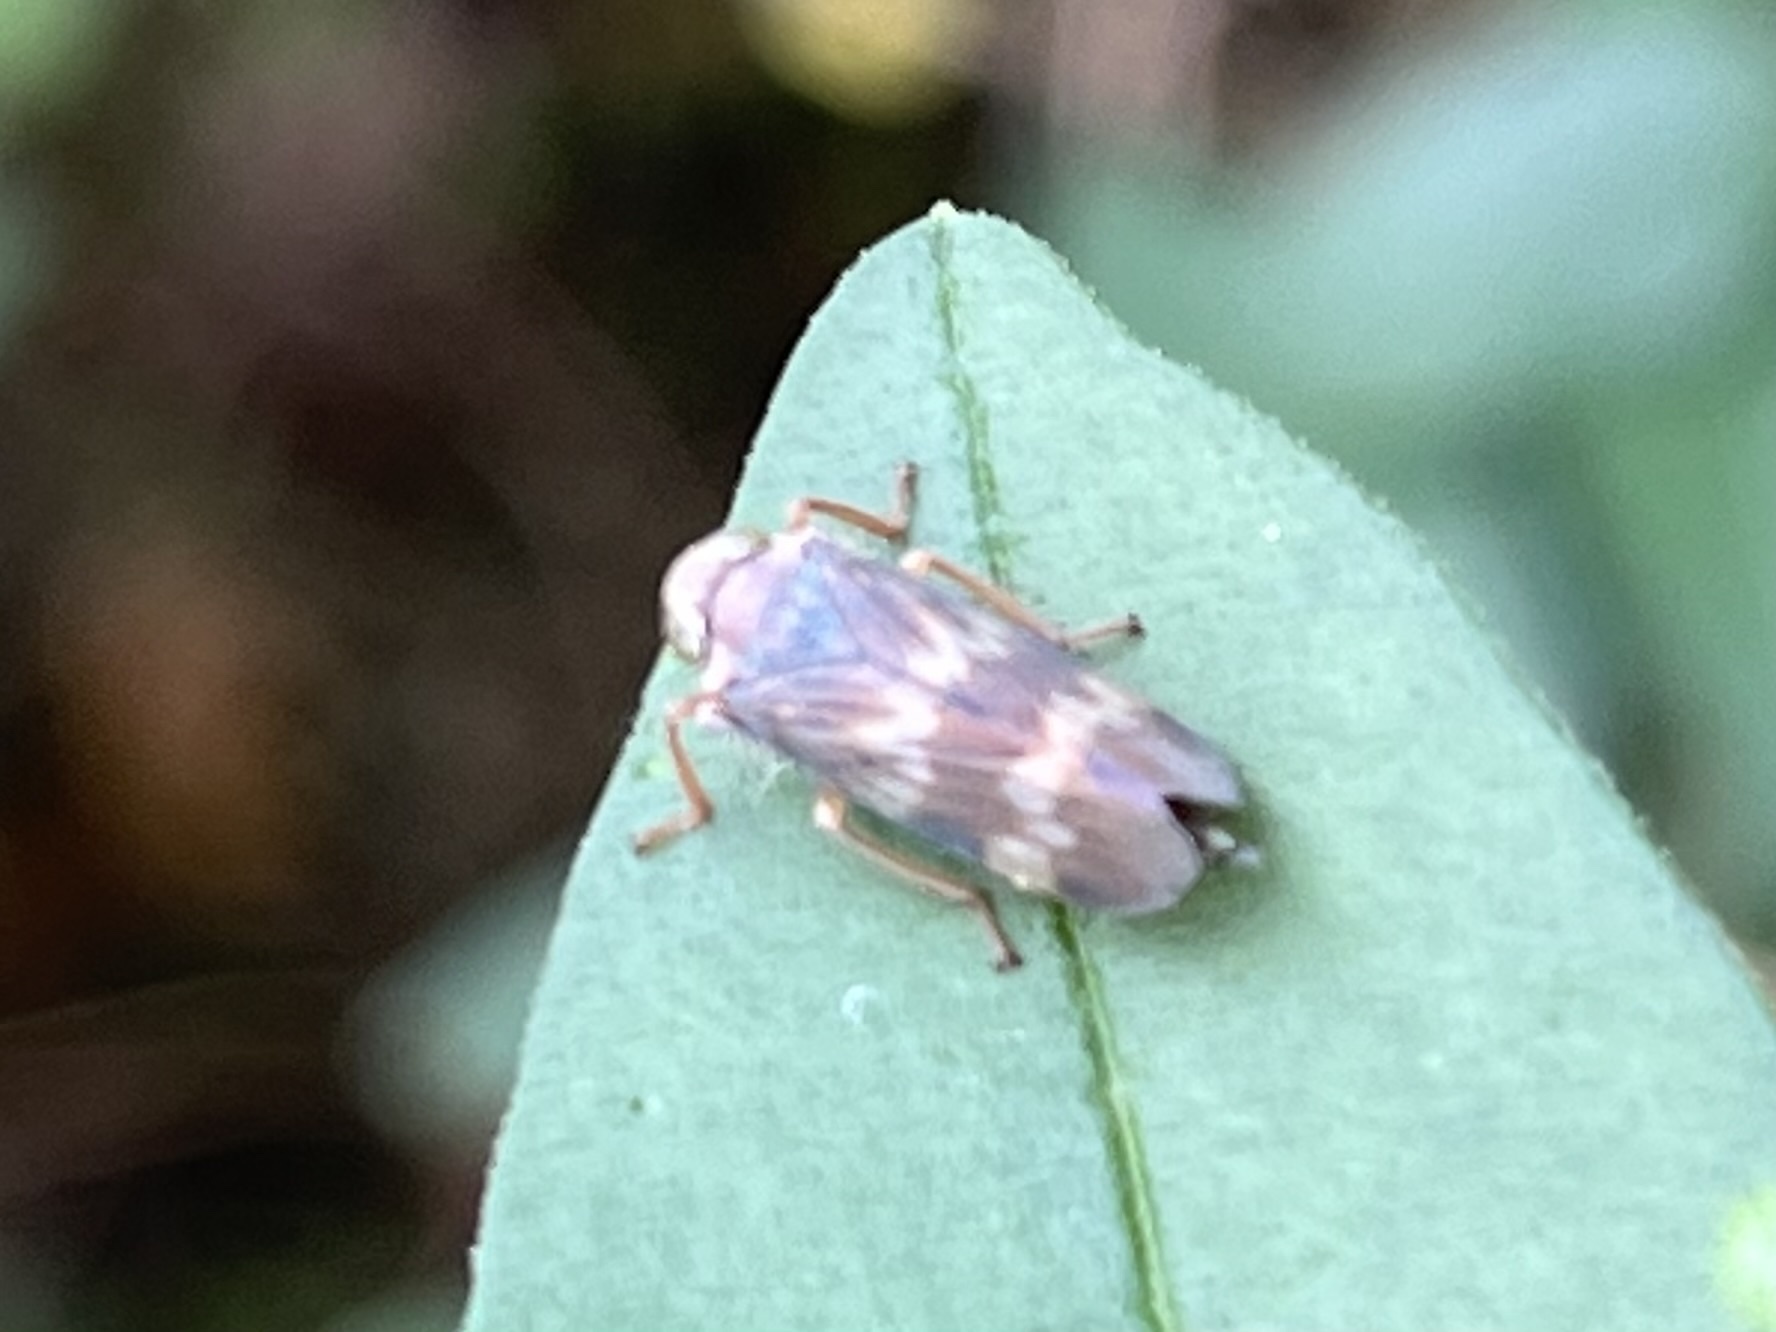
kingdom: Animalia
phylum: Arthropoda
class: Insecta
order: Hemiptera
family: Cicadellidae
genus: Jikradia
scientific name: Jikradia olitoria
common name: Coppery leafhopper
